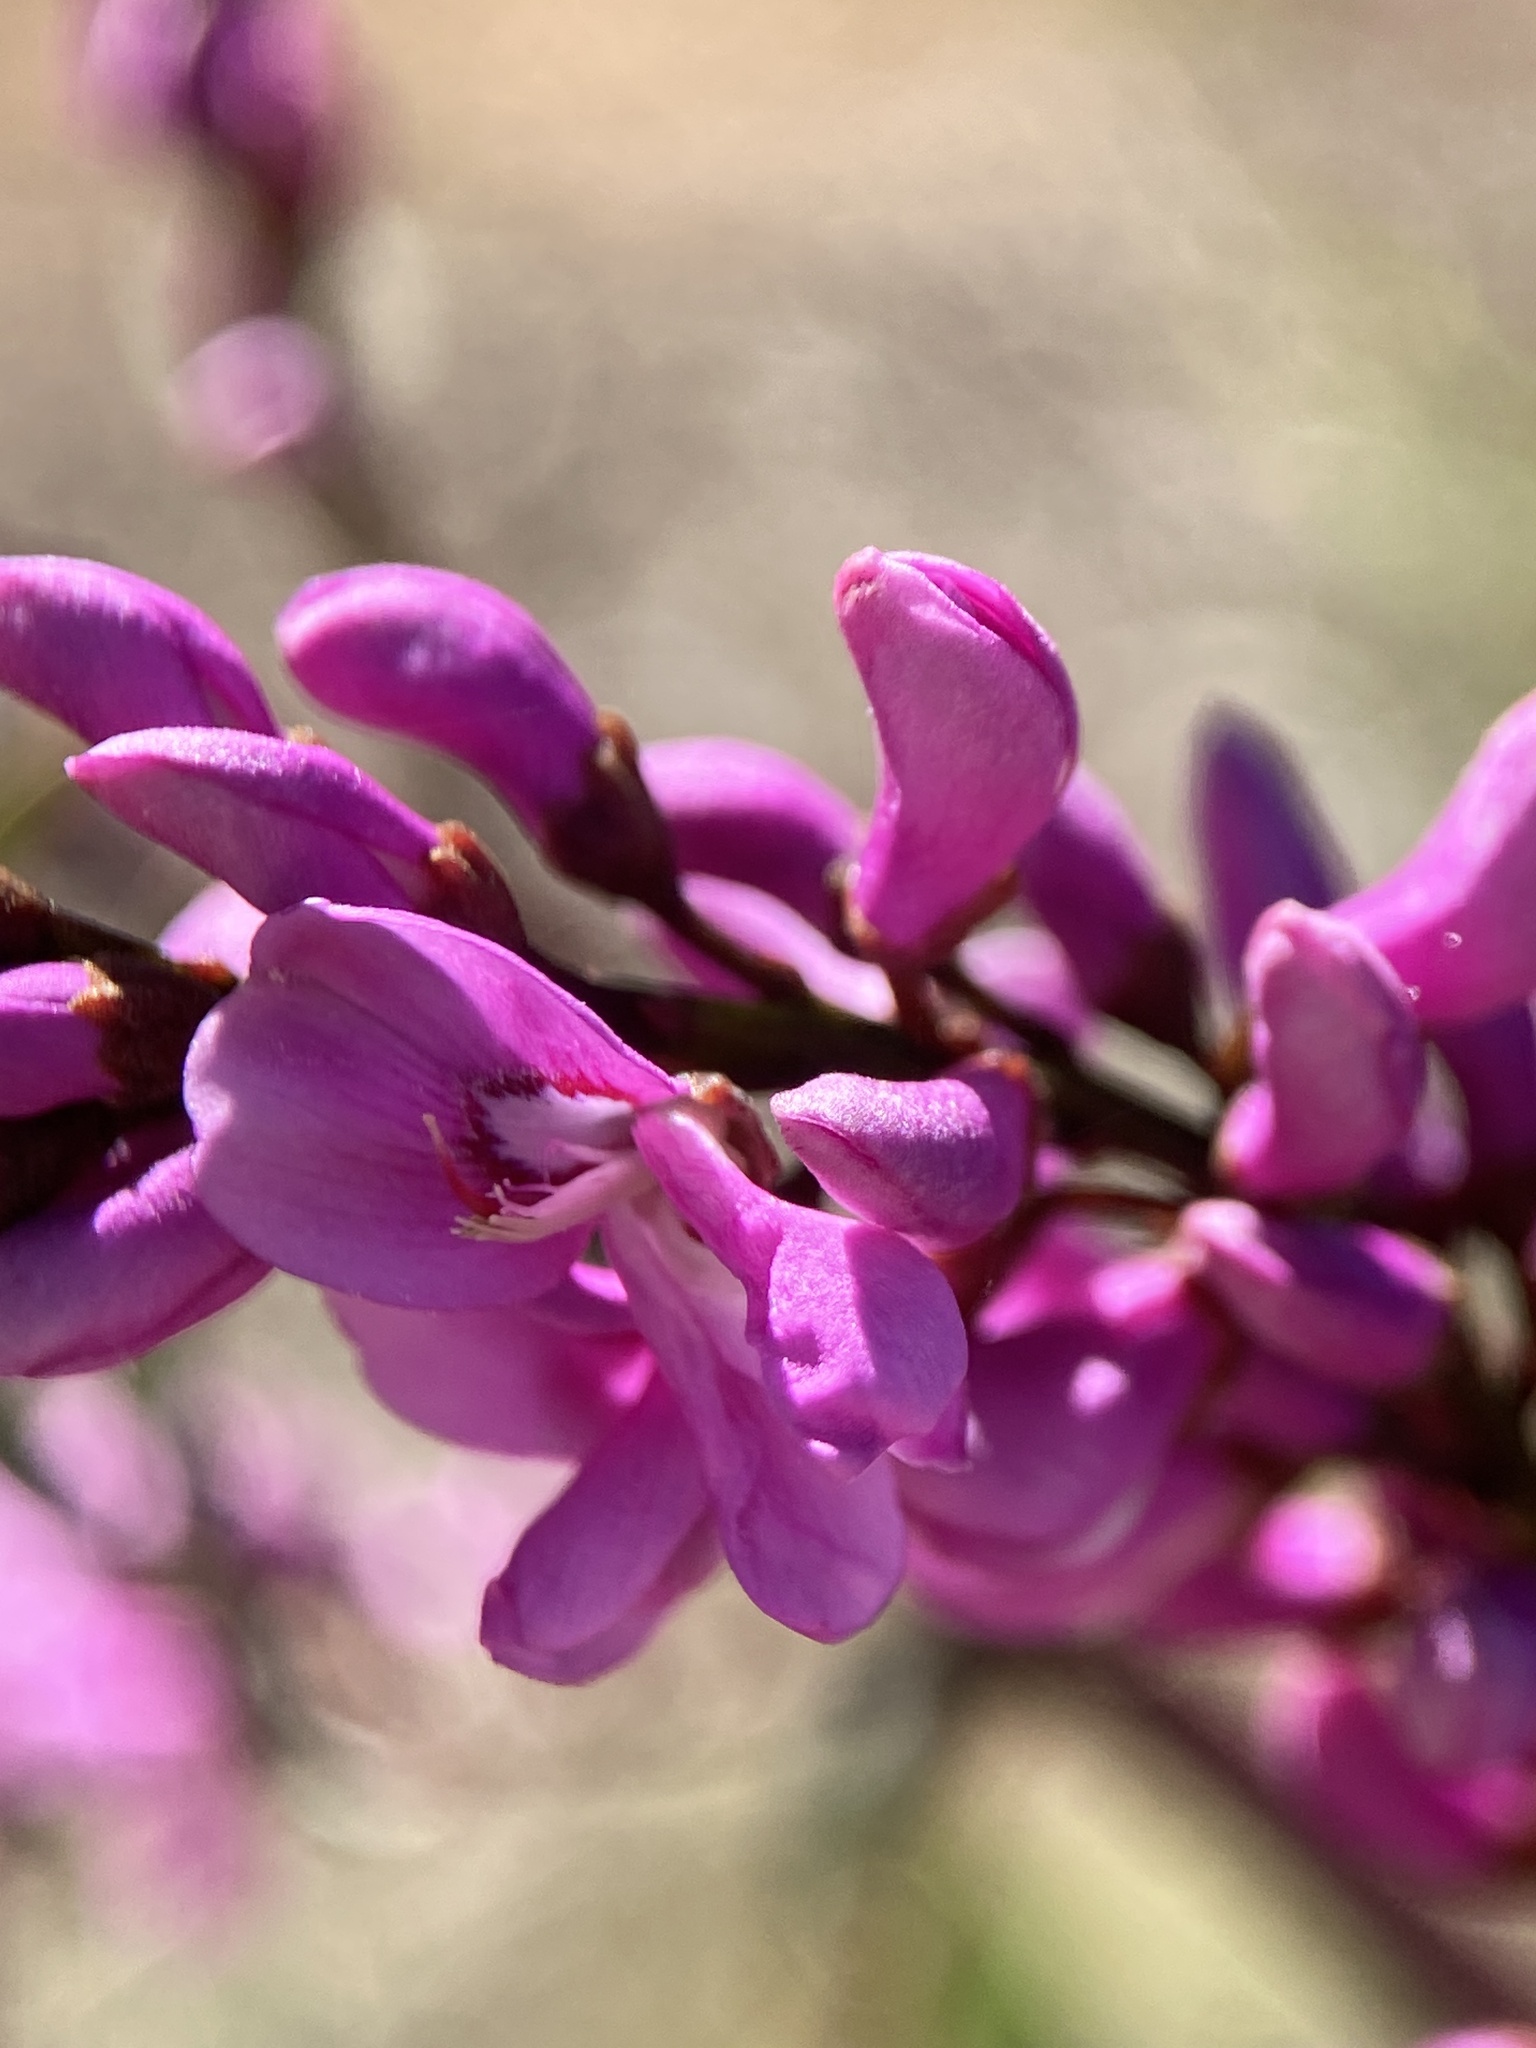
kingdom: Plantae
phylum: Tracheophyta
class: Magnoliopsida
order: Fabales
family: Fabaceae
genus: Indigofera
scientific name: Indigofera australis
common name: Australian indigo
